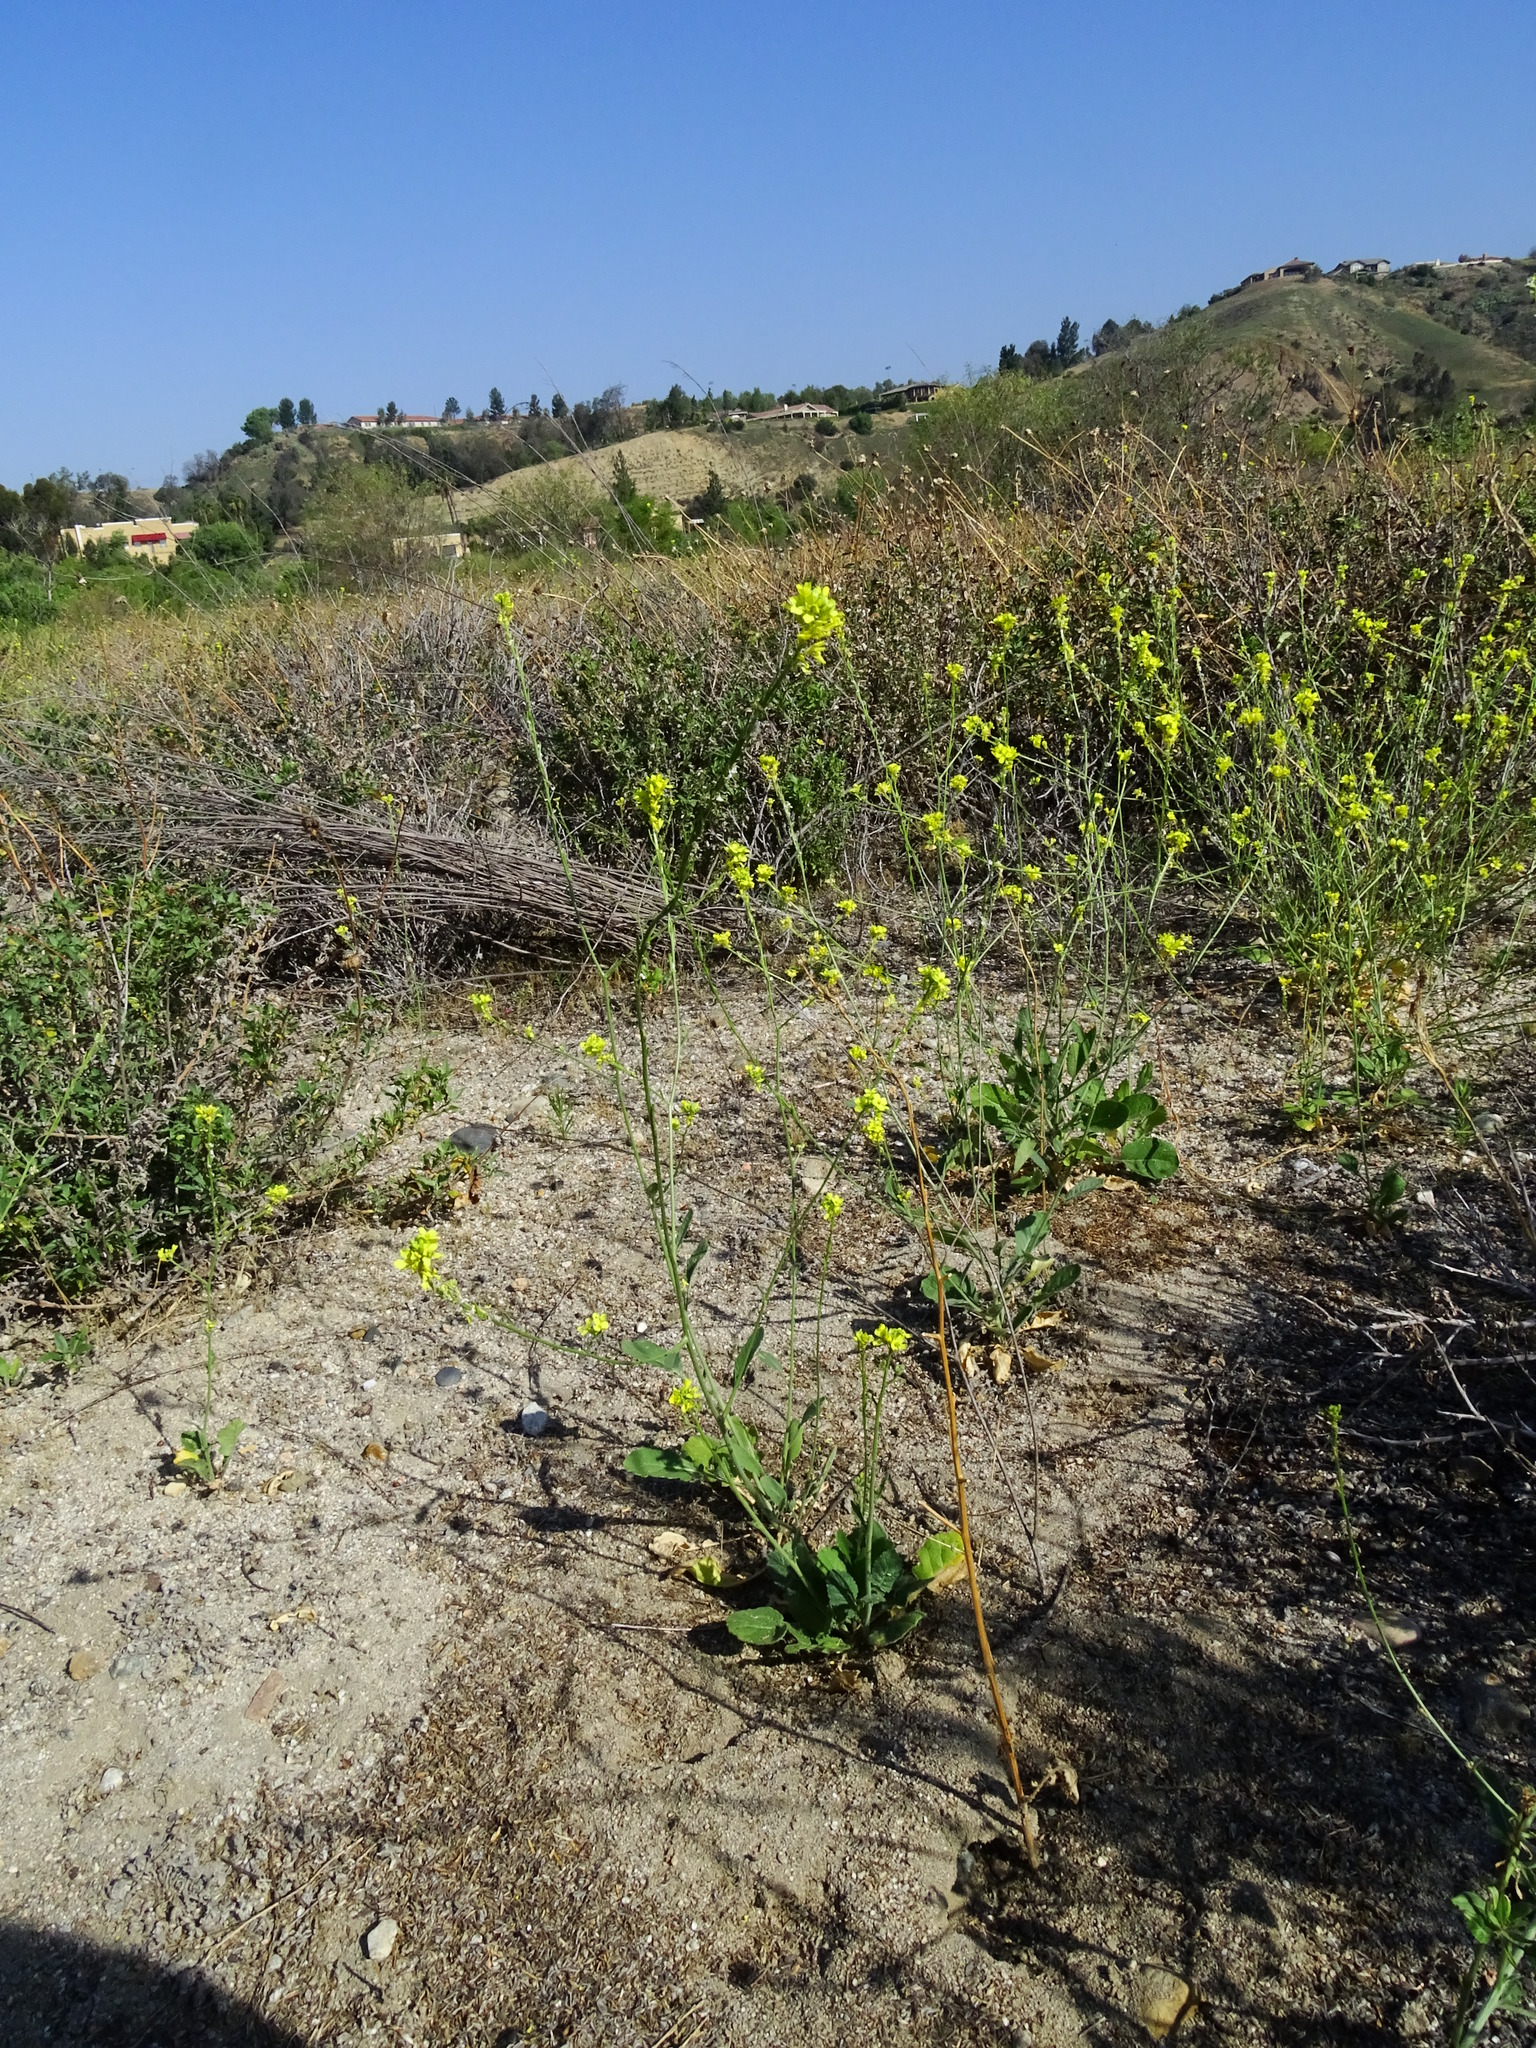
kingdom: Plantae
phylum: Tracheophyta
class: Magnoliopsida
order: Brassicales
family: Brassicaceae
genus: Hirschfeldia
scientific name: Hirschfeldia incana
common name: Hoary mustard
